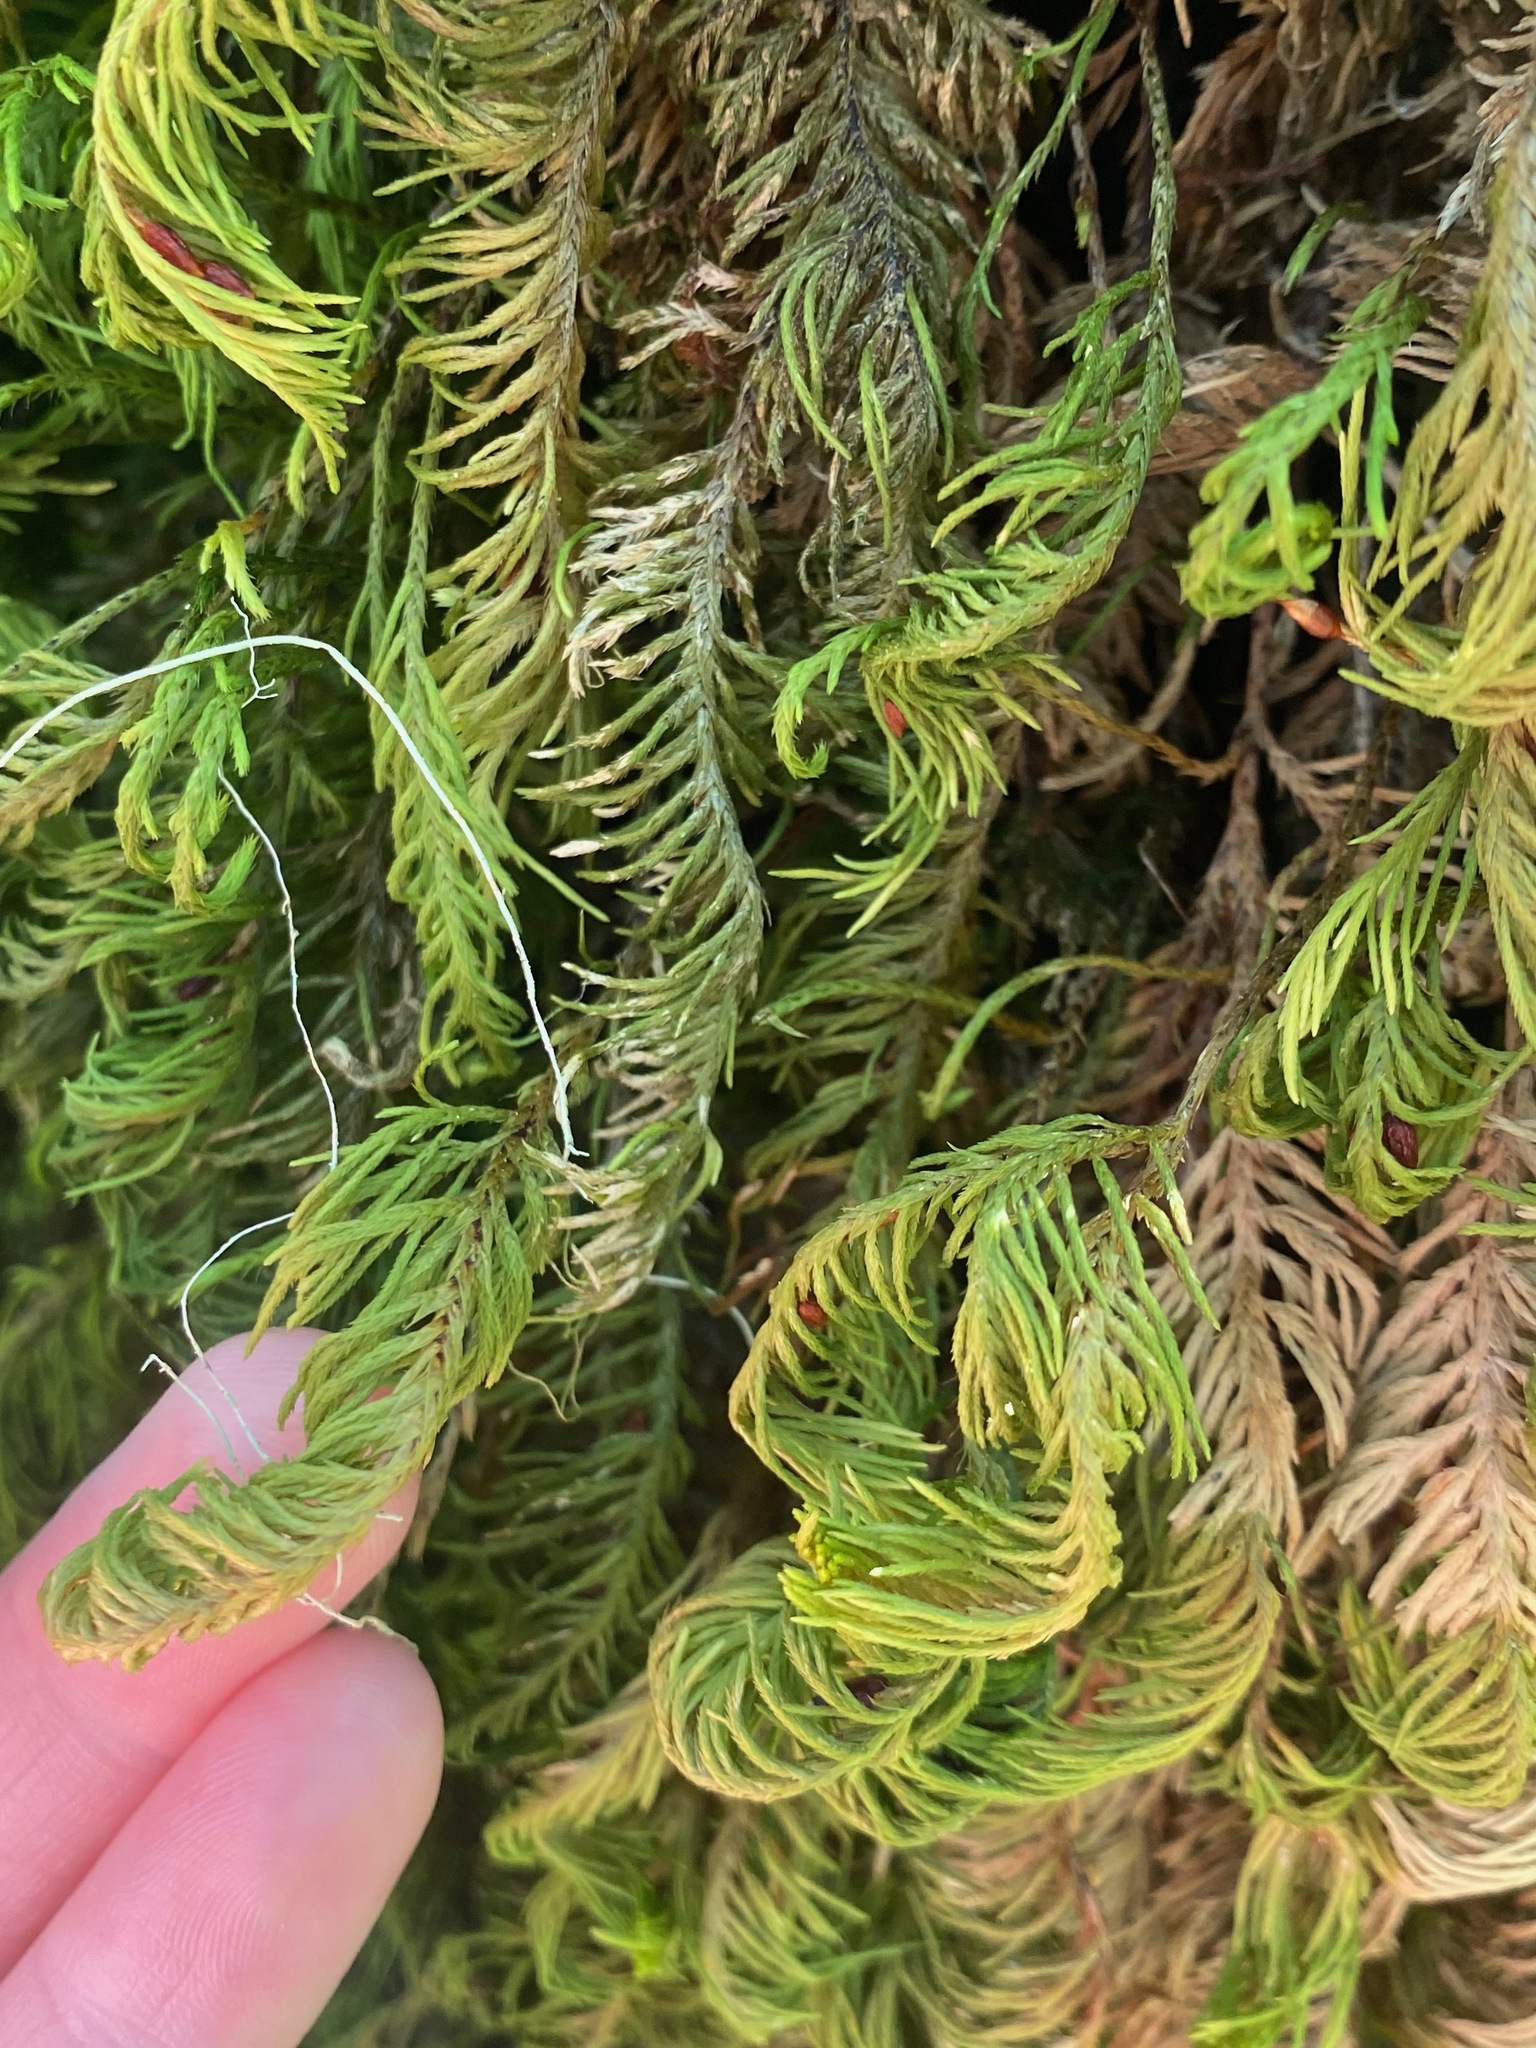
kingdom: Plantae
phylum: Bryophyta
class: Bryopsida
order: Hypnales
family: Cryphaeaceae
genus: Dendroalsia
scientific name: Dendroalsia abietina
